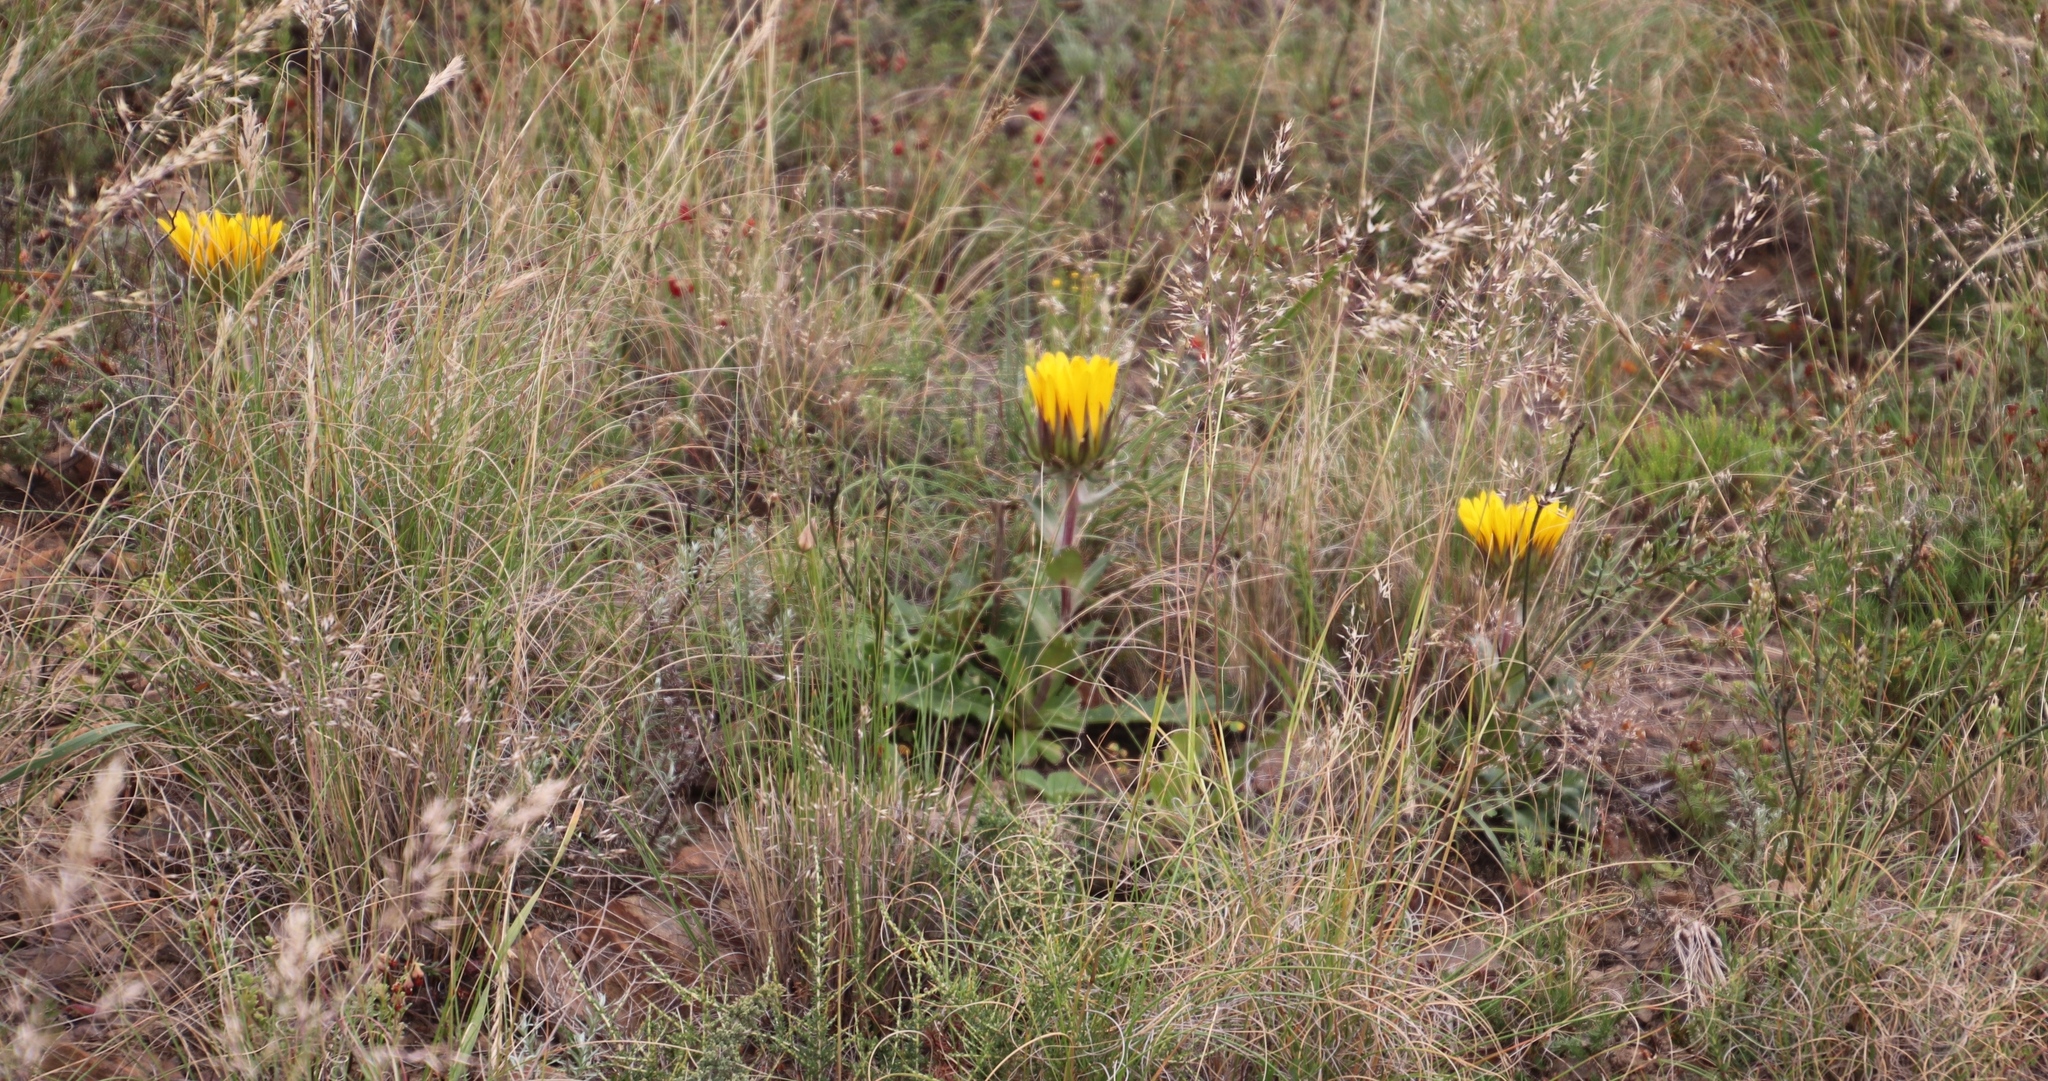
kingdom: Plantae
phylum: Tracheophyta
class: Magnoliopsida
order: Asterales
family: Asteraceae
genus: Berkheya
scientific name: Berkheya armata
